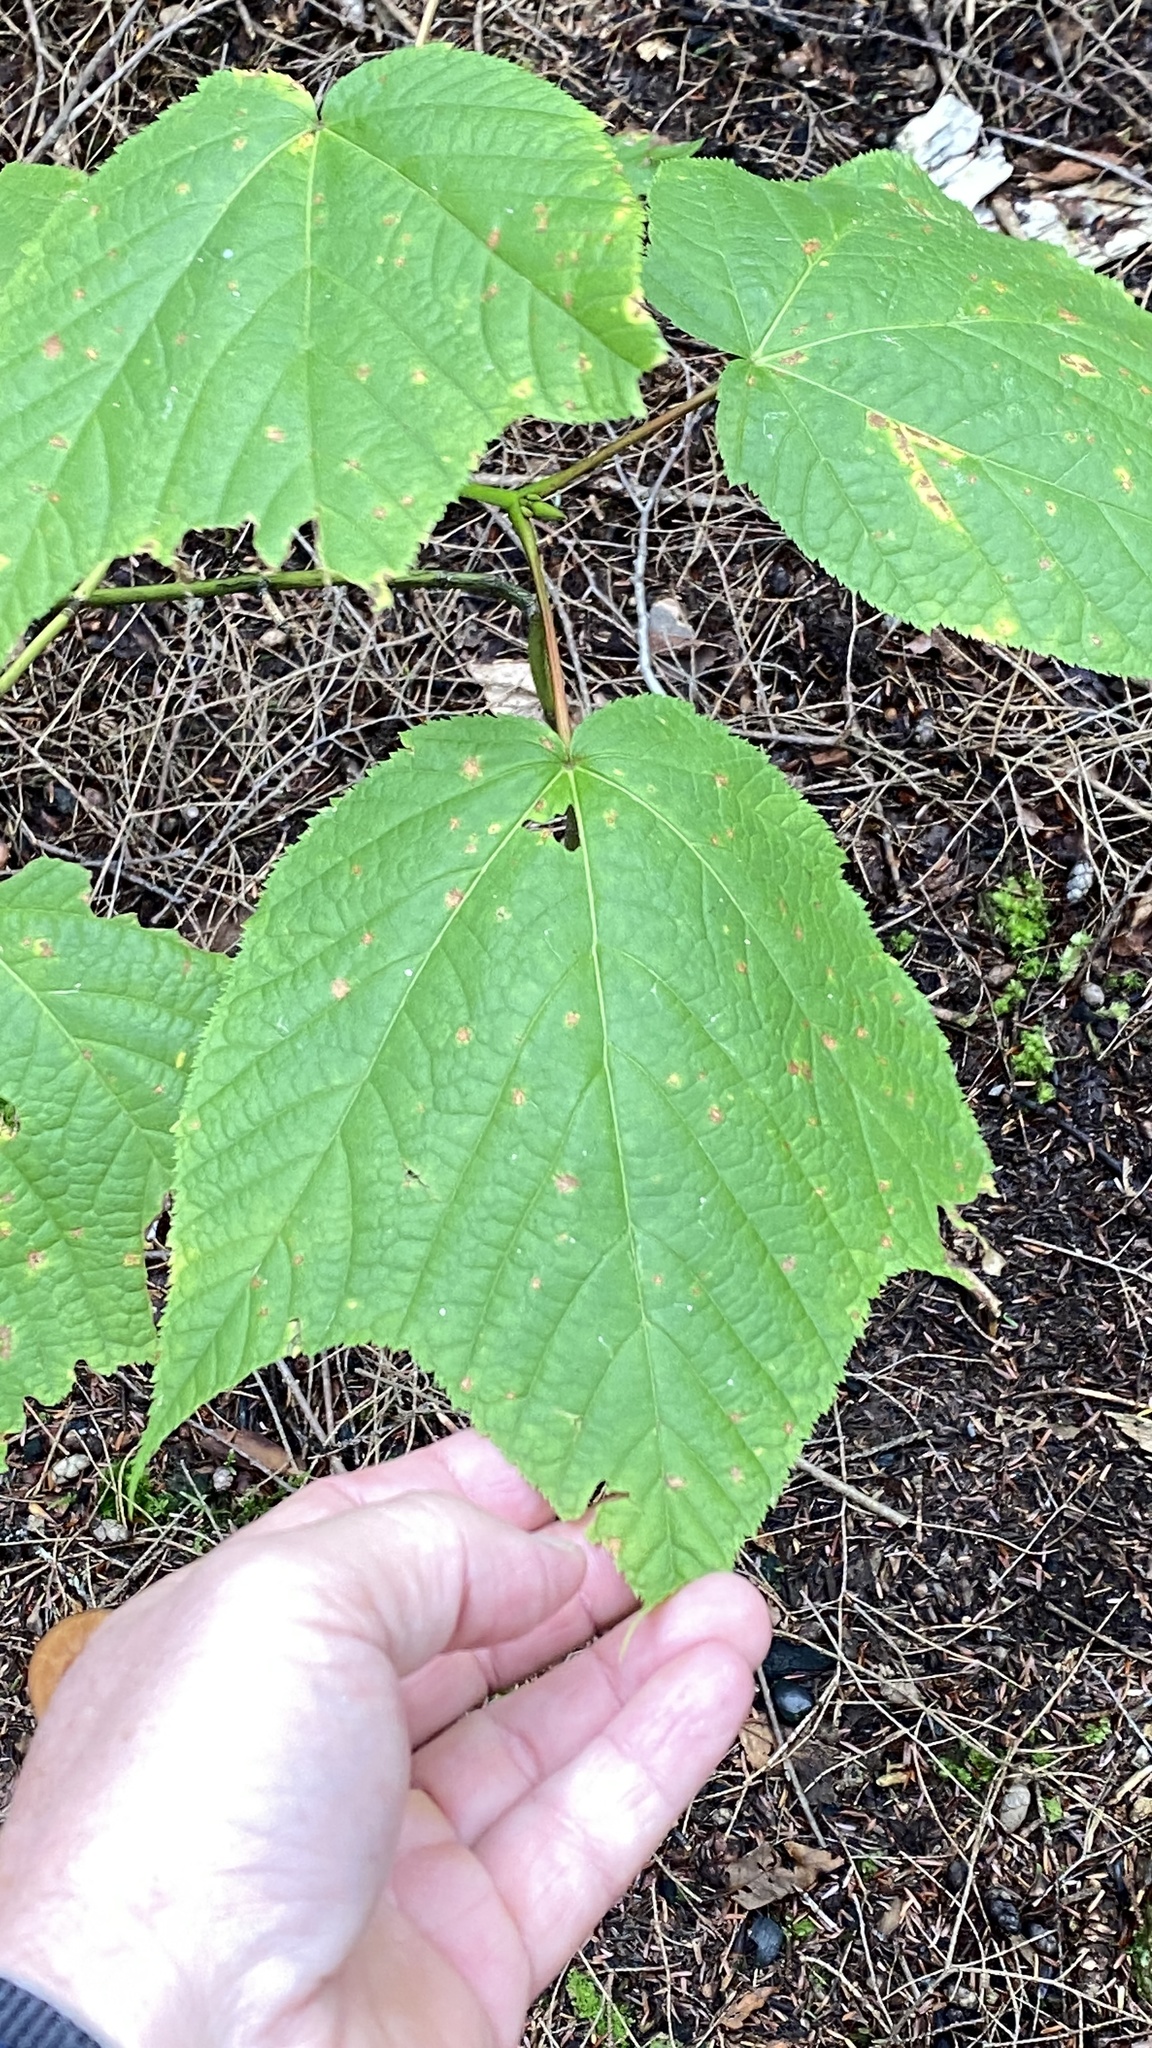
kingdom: Plantae
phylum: Tracheophyta
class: Magnoliopsida
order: Sapindales
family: Sapindaceae
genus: Acer
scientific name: Acer pensylvanicum
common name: Moosewood
